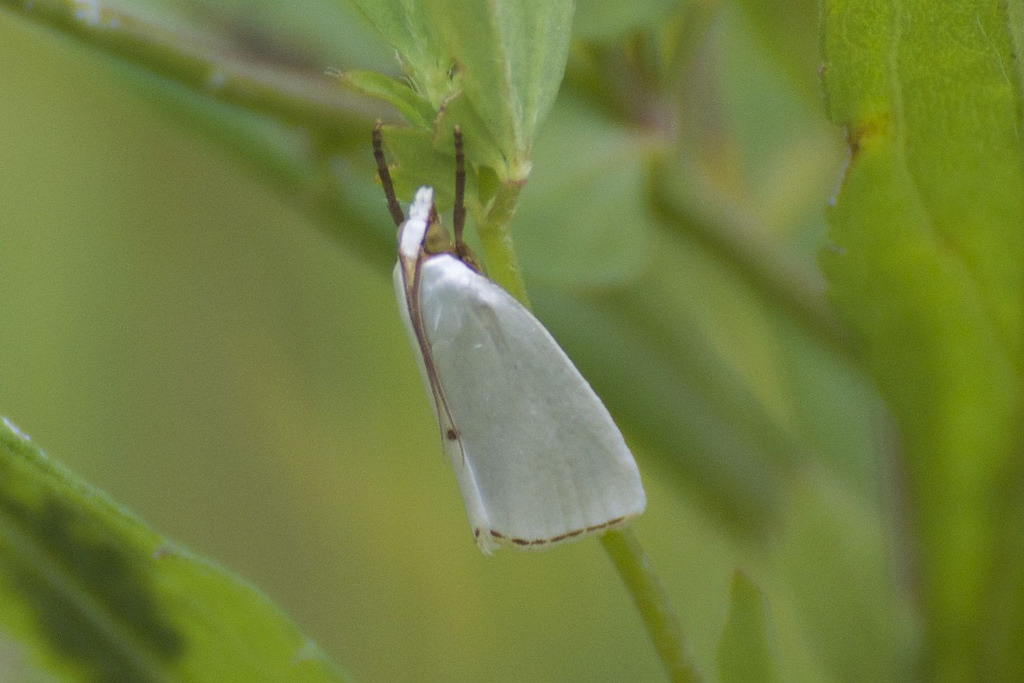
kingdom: Animalia
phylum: Arthropoda
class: Insecta
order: Lepidoptera
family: Crambidae
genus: Argyria
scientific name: Argyria nivalis
